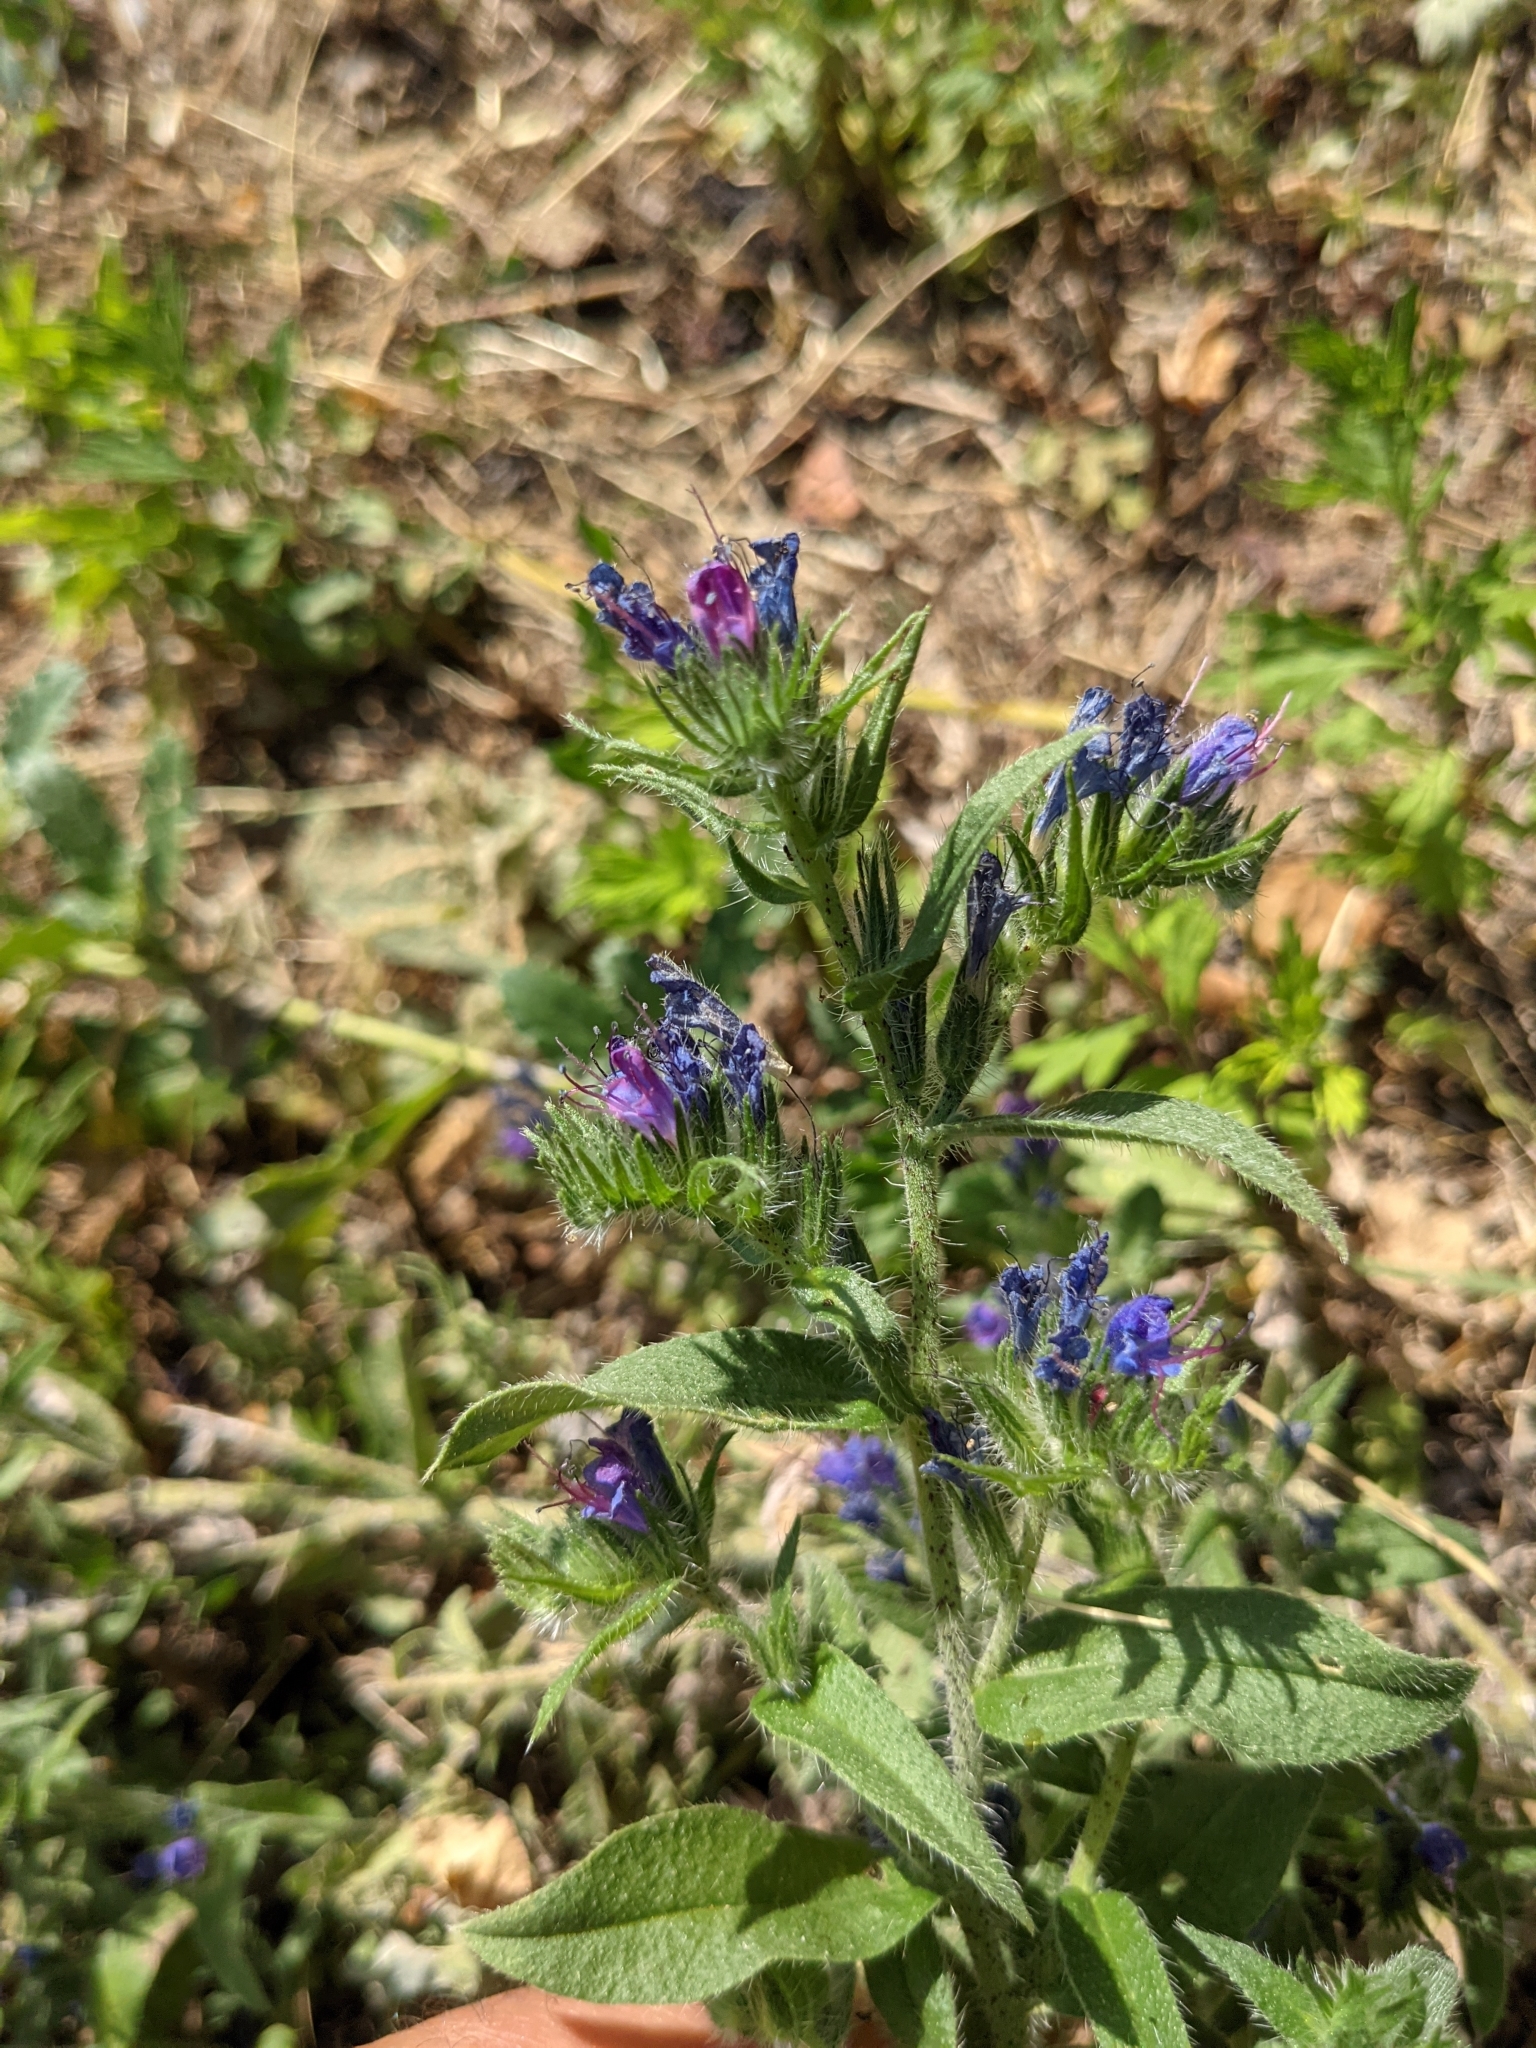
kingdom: Plantae
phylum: Tracheophyta
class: Magnoliopsida
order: Boraginales
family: Boraginaceae
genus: Echium
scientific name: Echium vulgare
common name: Common viper's bugloss
